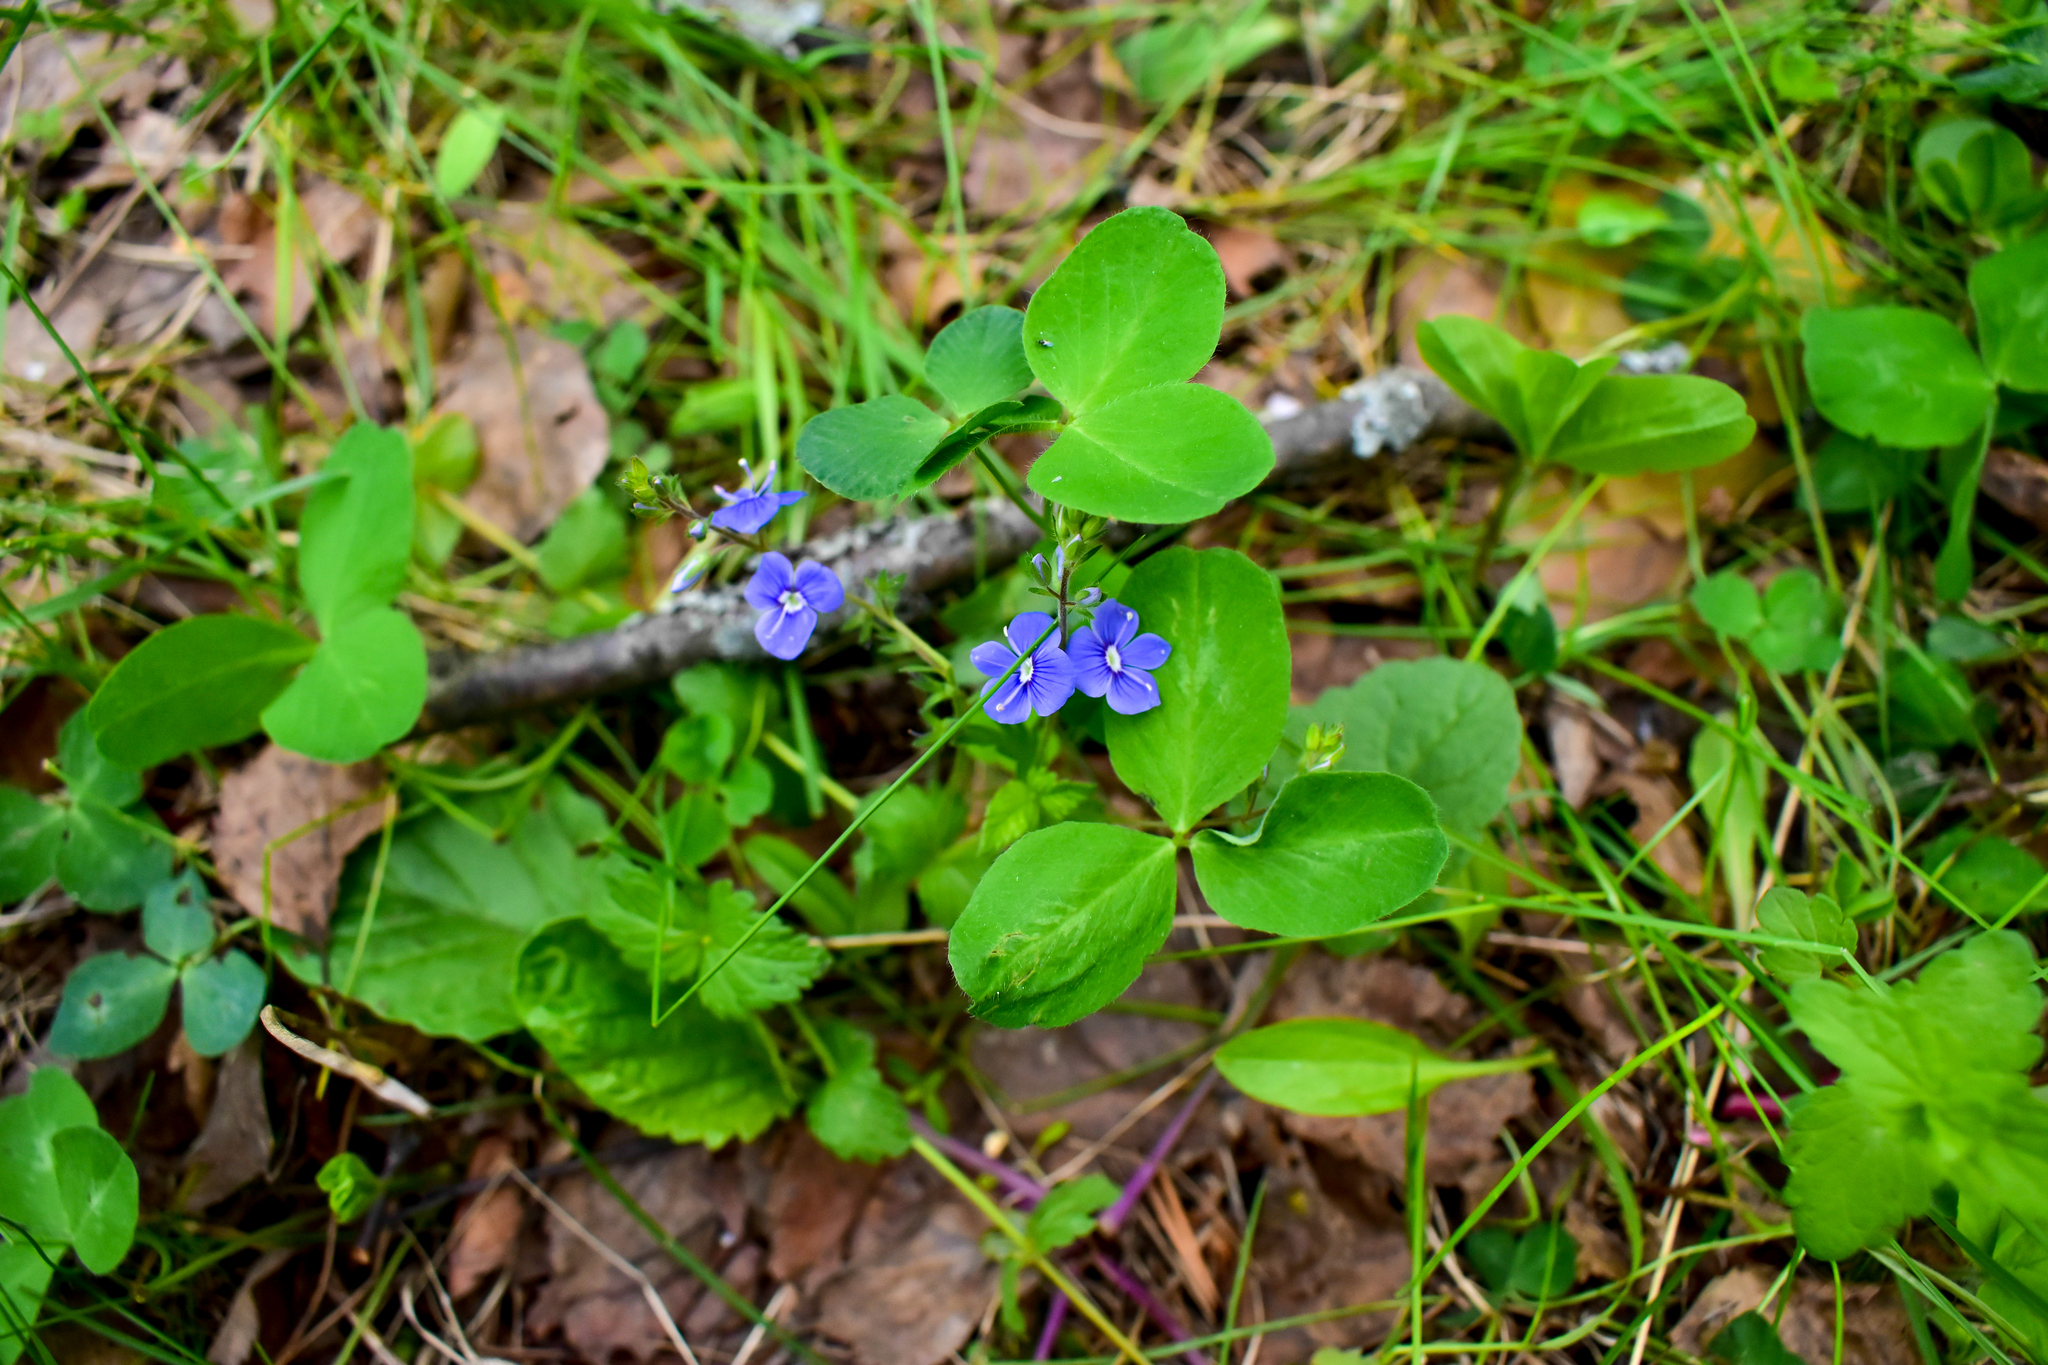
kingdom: Plantae
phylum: Tracheophyta
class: Magnoliopsida
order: Lamiales
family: Plantaginaceae
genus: Veronica
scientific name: Veronica chamaedrys
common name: Germander speedwell
